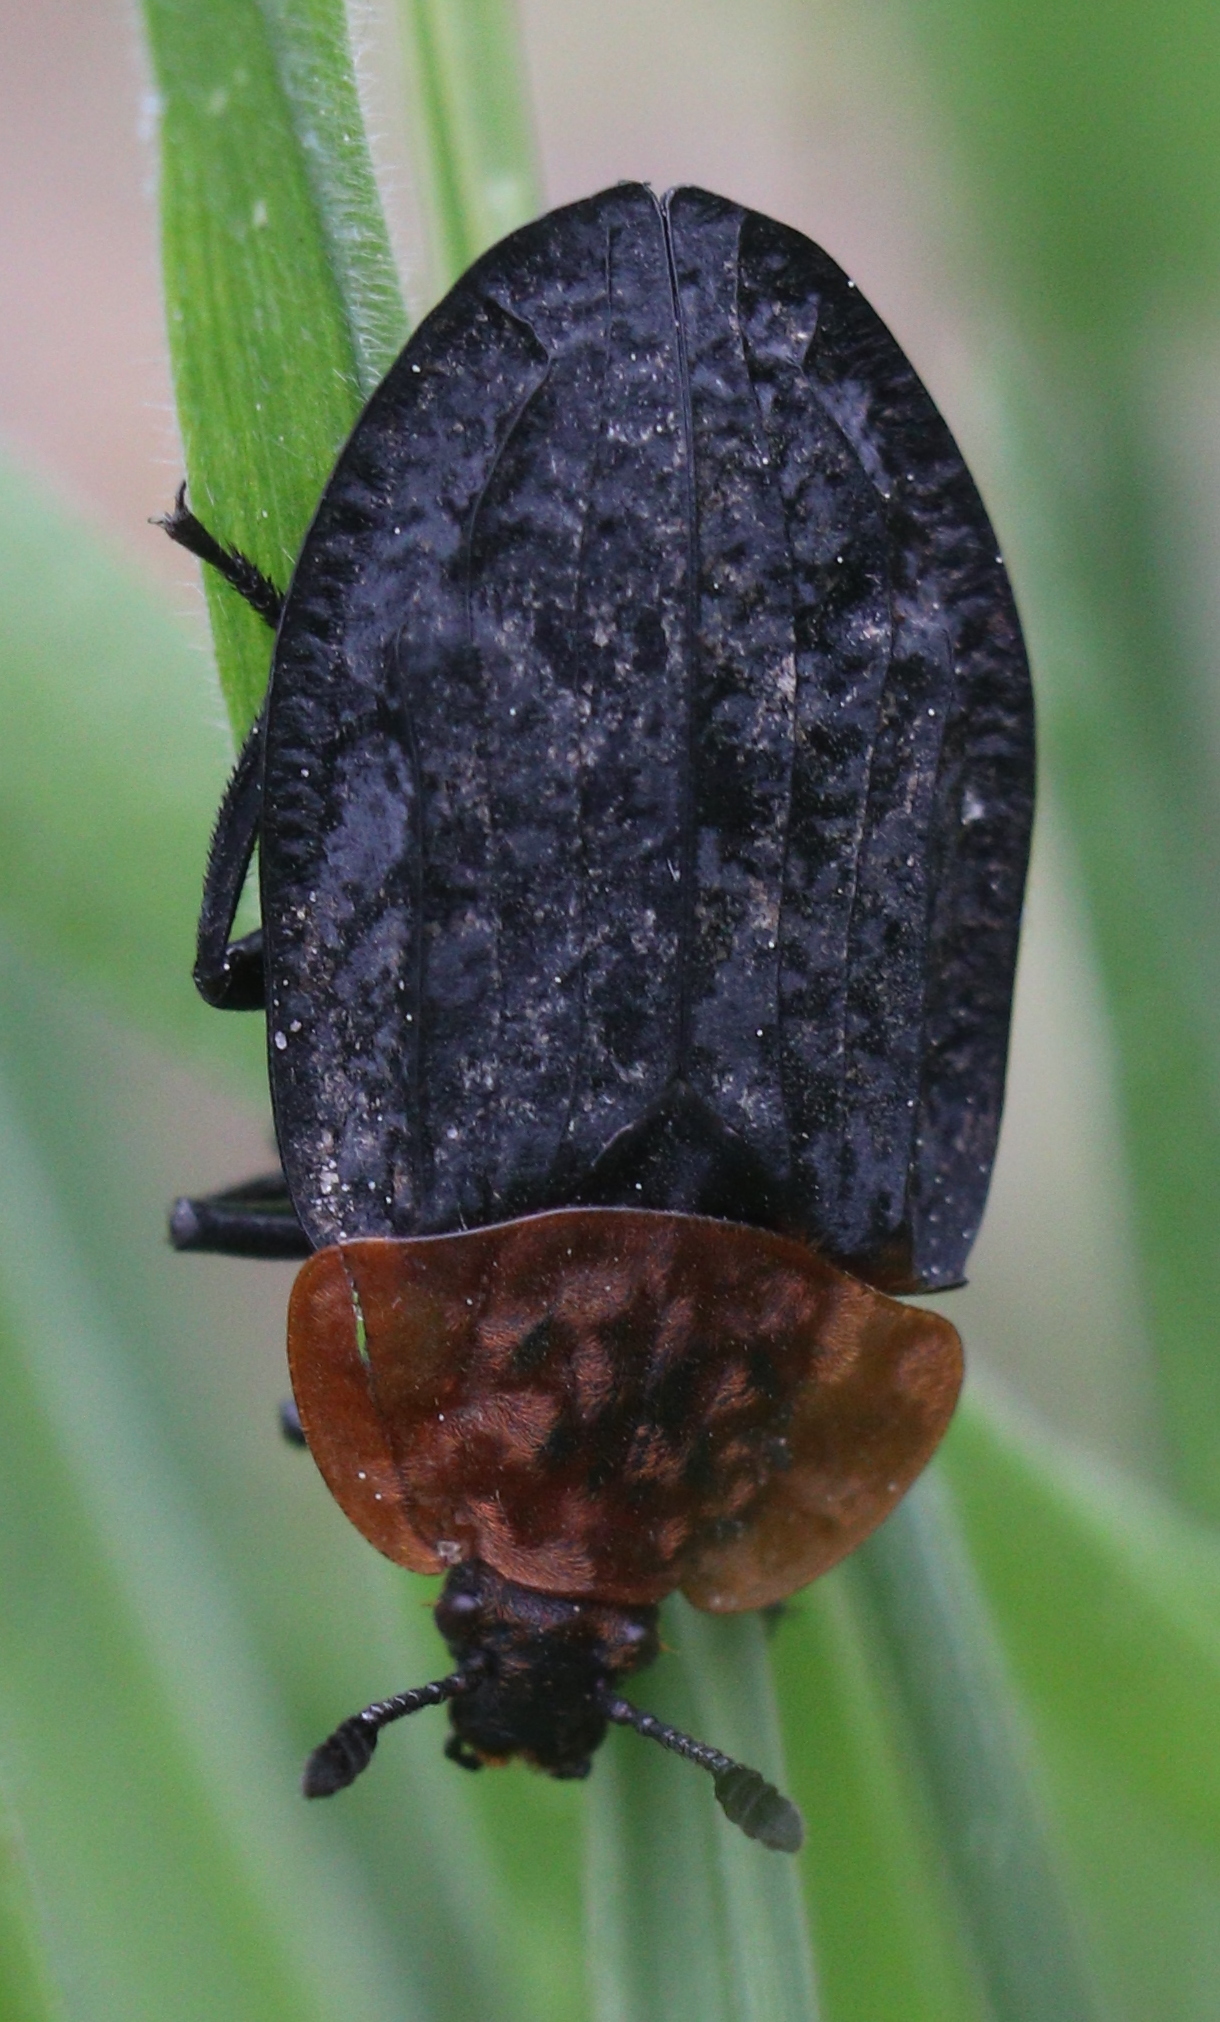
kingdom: Animalia
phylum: Arthropoda
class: Insecta
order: Coleoptera
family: Staphylinidae
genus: Oiceoptoma
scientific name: Oiceoptoma thoracicum
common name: Red-breasted carrion beetle
